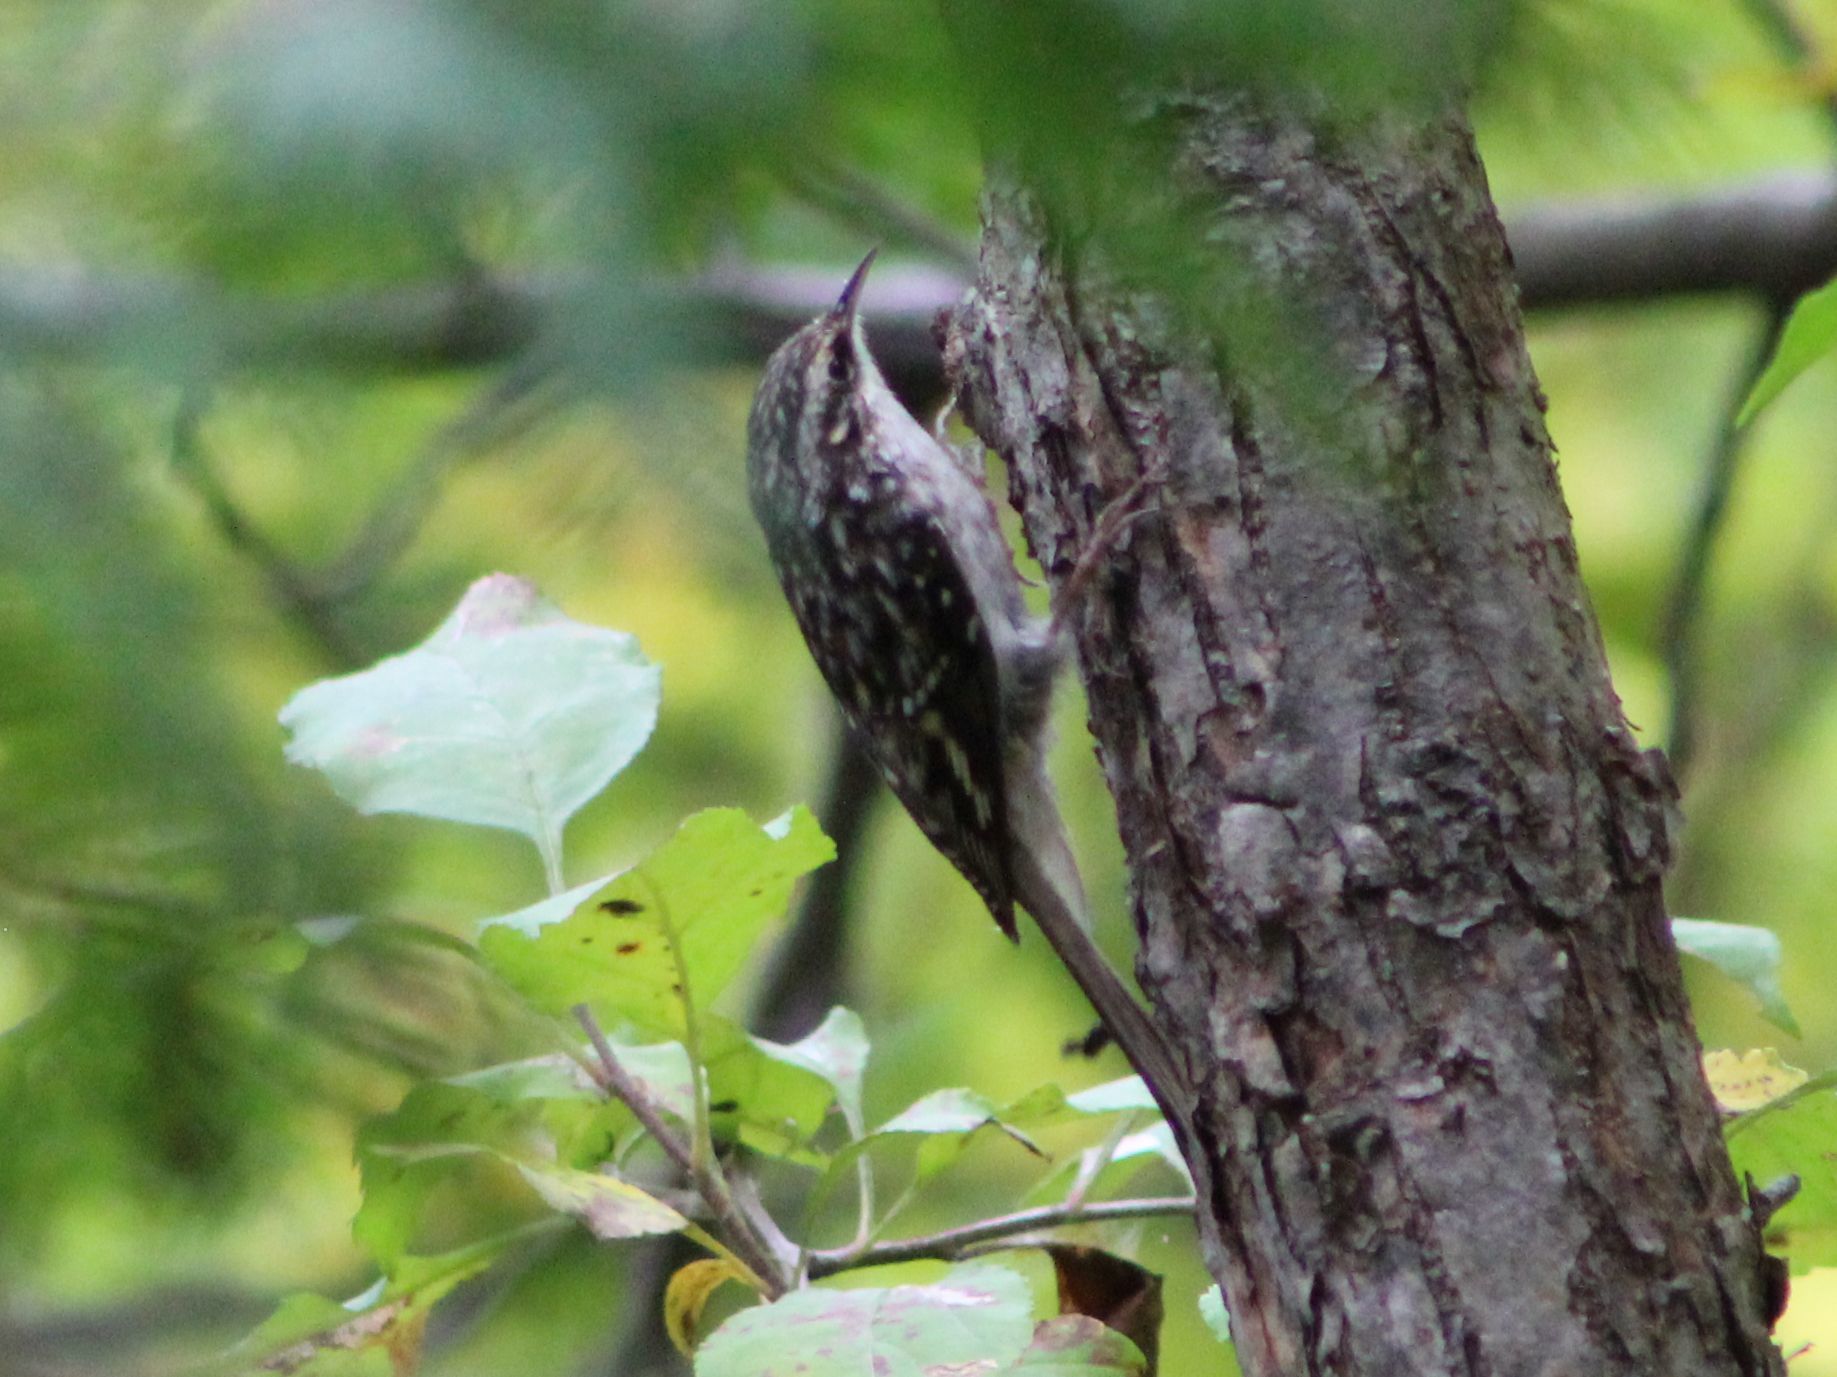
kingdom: Animalia
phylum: Chordata
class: Aves
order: Passeriformes
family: Certhiidae
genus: Certhia
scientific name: Certhia americana
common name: Brown creeper
